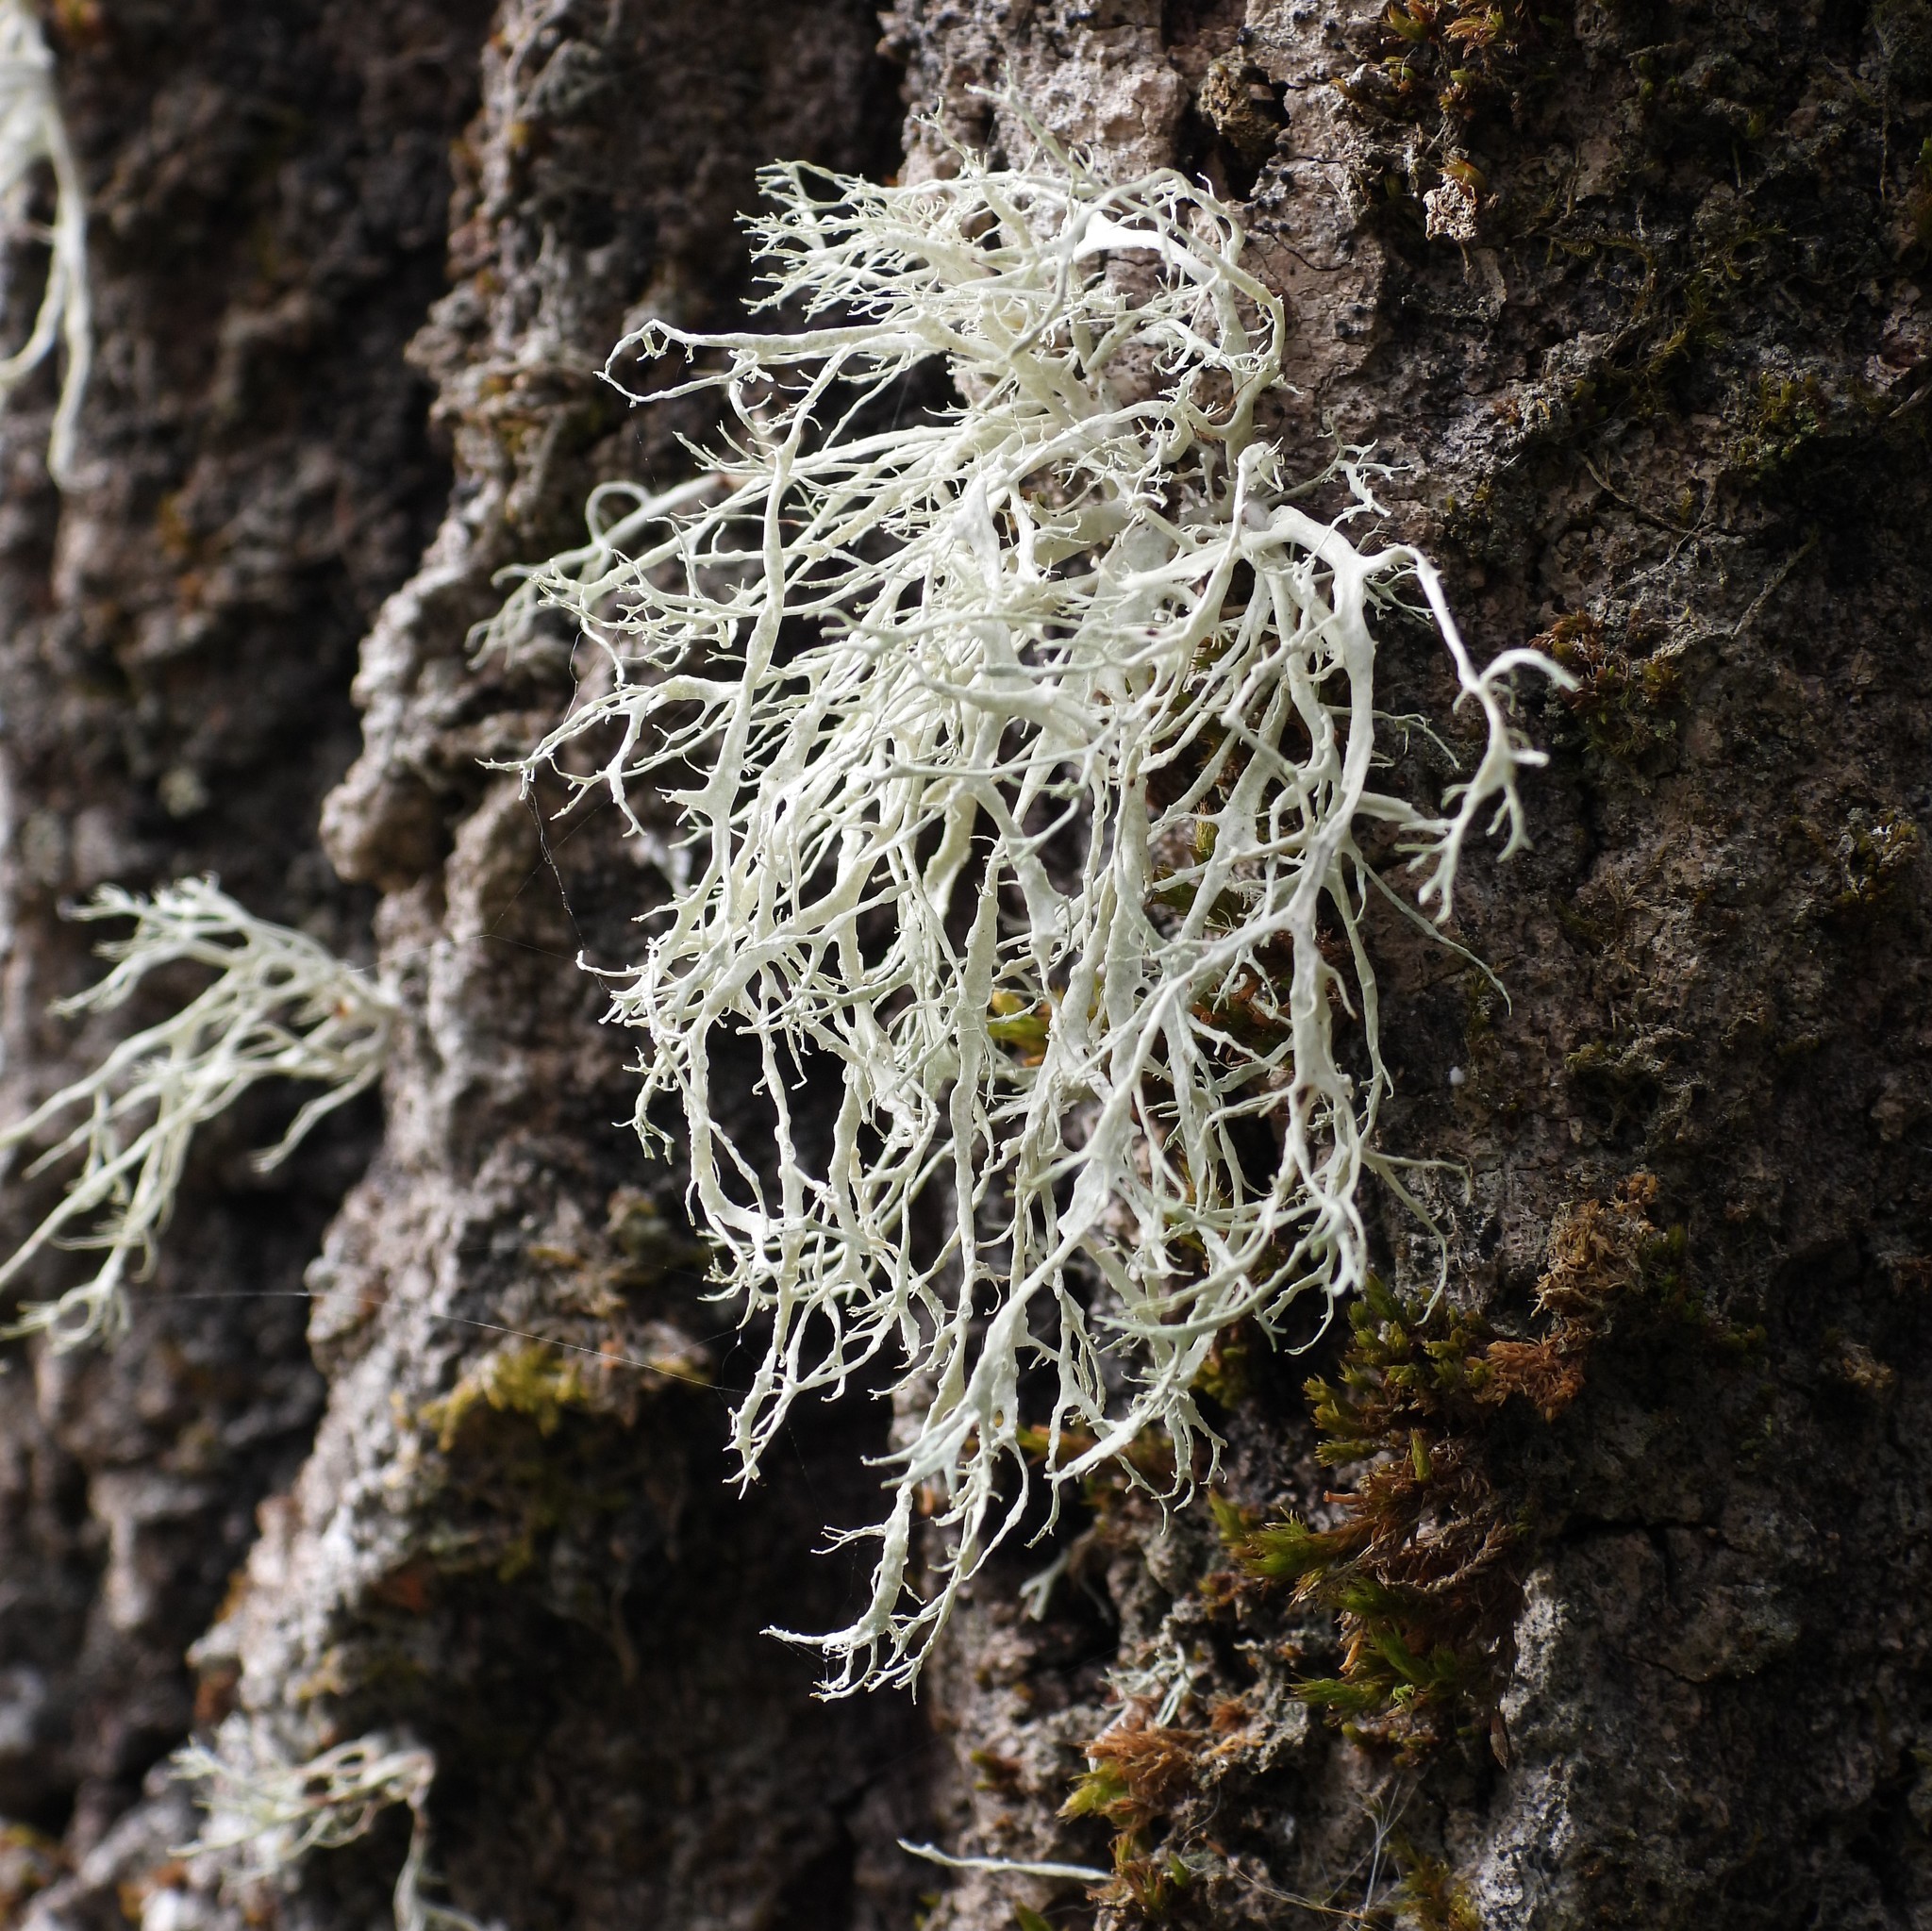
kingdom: Fungi
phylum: Ascomycota
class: Lecanoromycetes
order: Lecanorales
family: Ramalinaceae
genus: Ramalina
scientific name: Ramalina farinacea
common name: Farinose cartilage lichen
